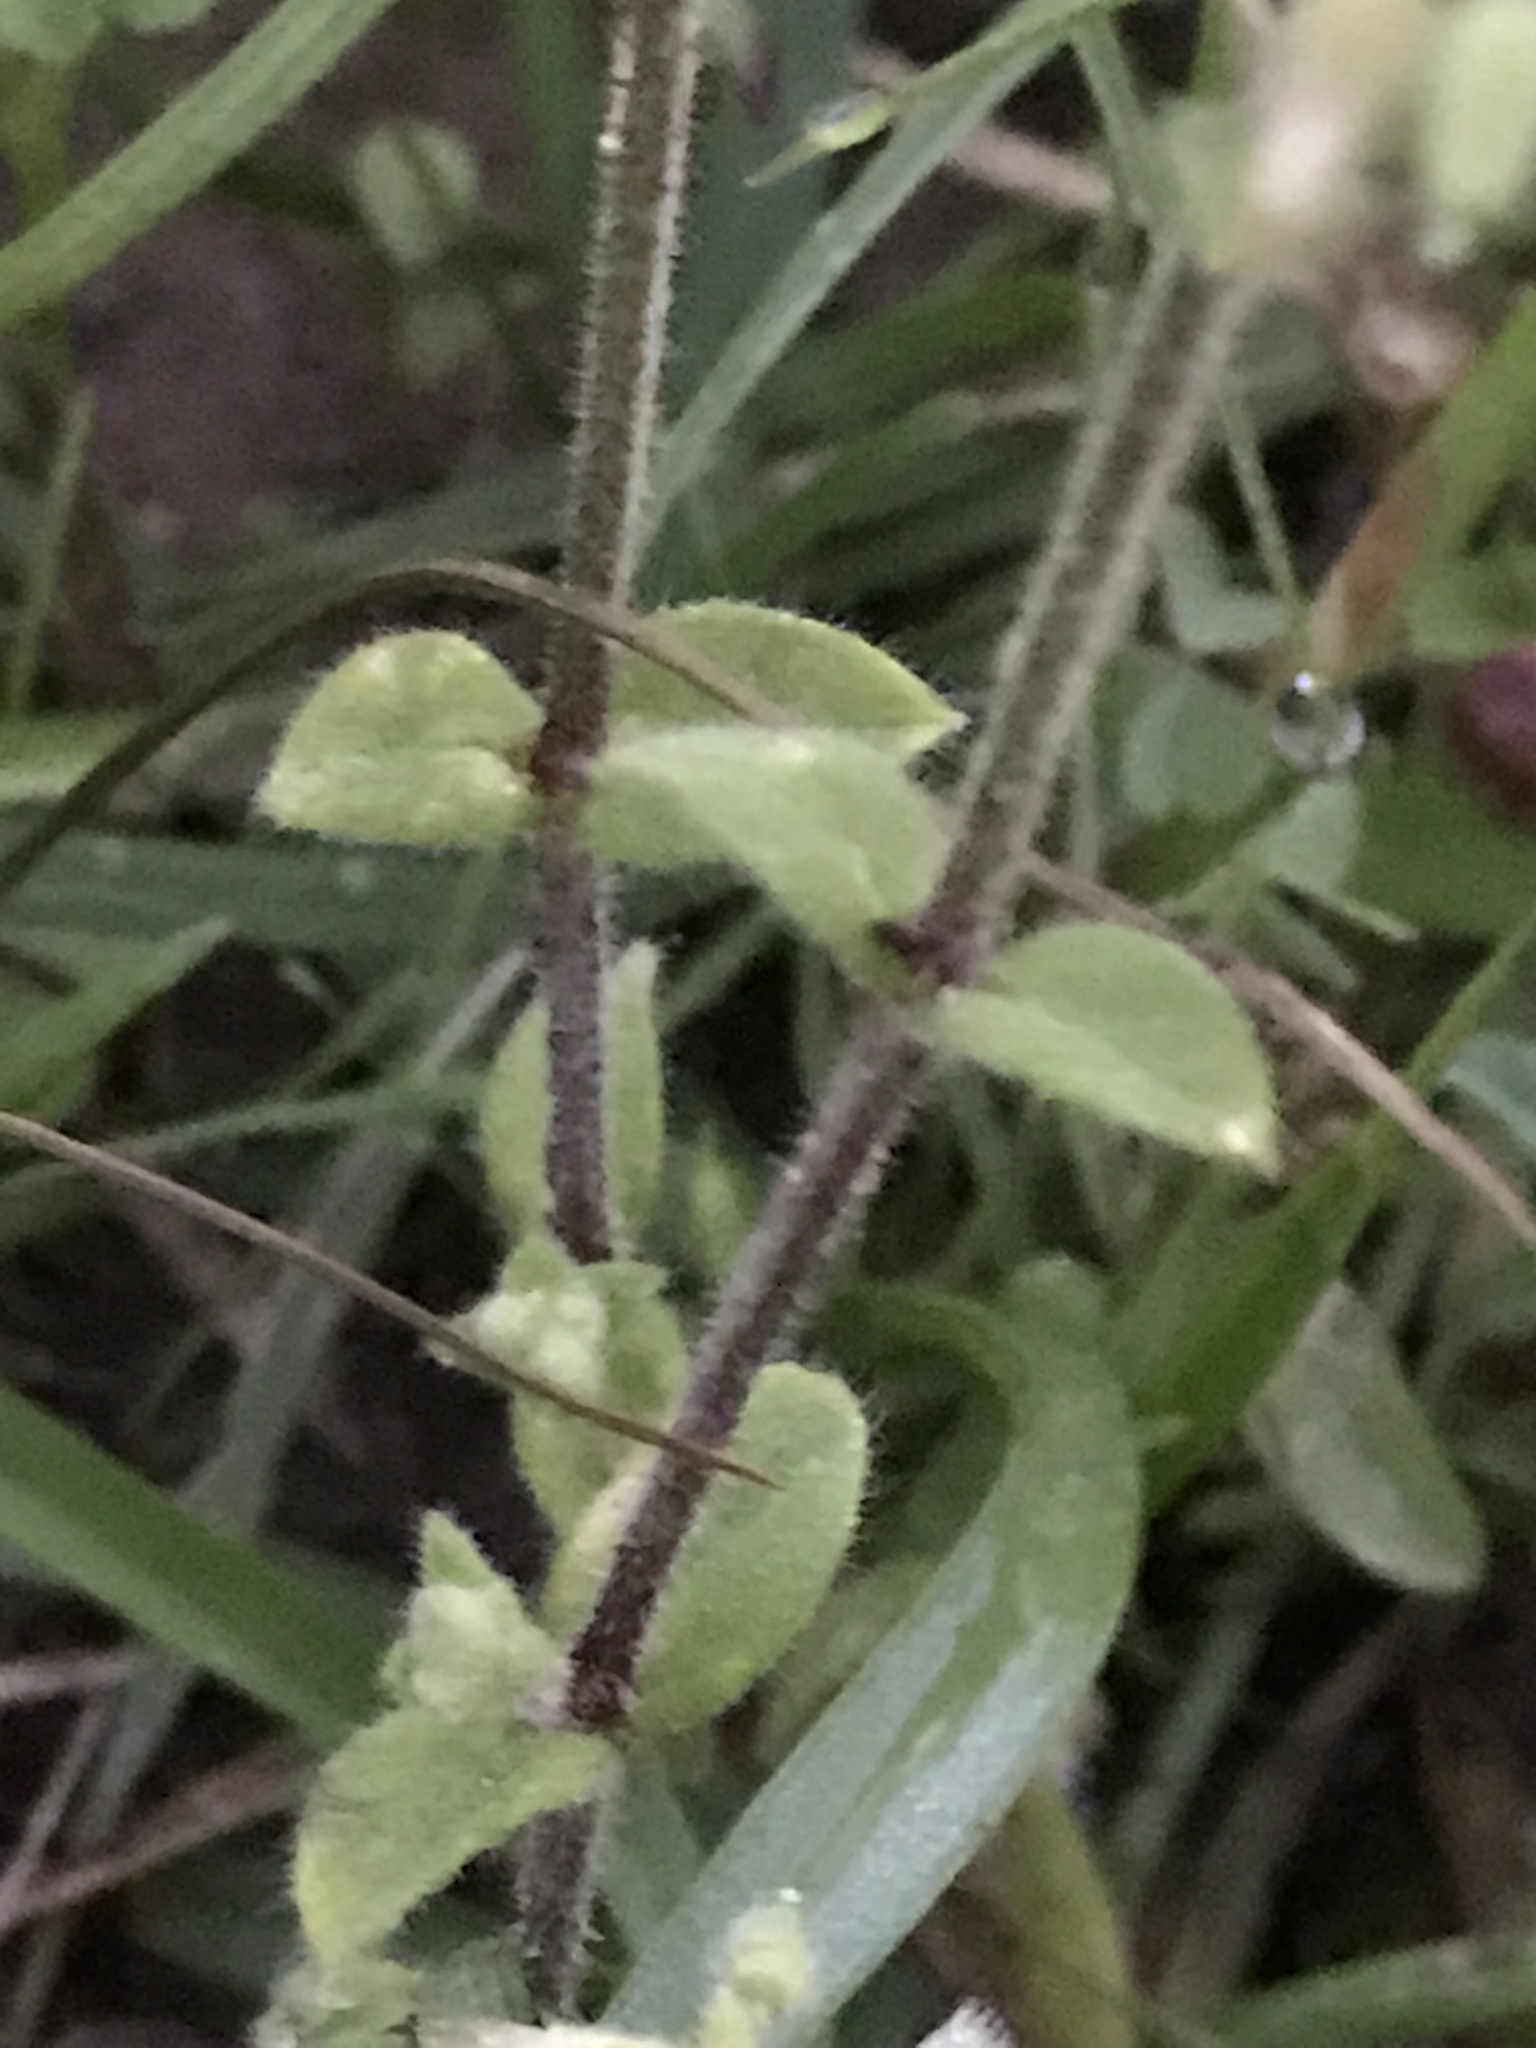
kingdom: Plantae
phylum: Tracheophyta
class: Magnoliopsida
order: Caryophyllales
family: Caryophyllaceae
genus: Cerastium
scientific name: Cerastium glomeratum
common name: Sticky chickweed
